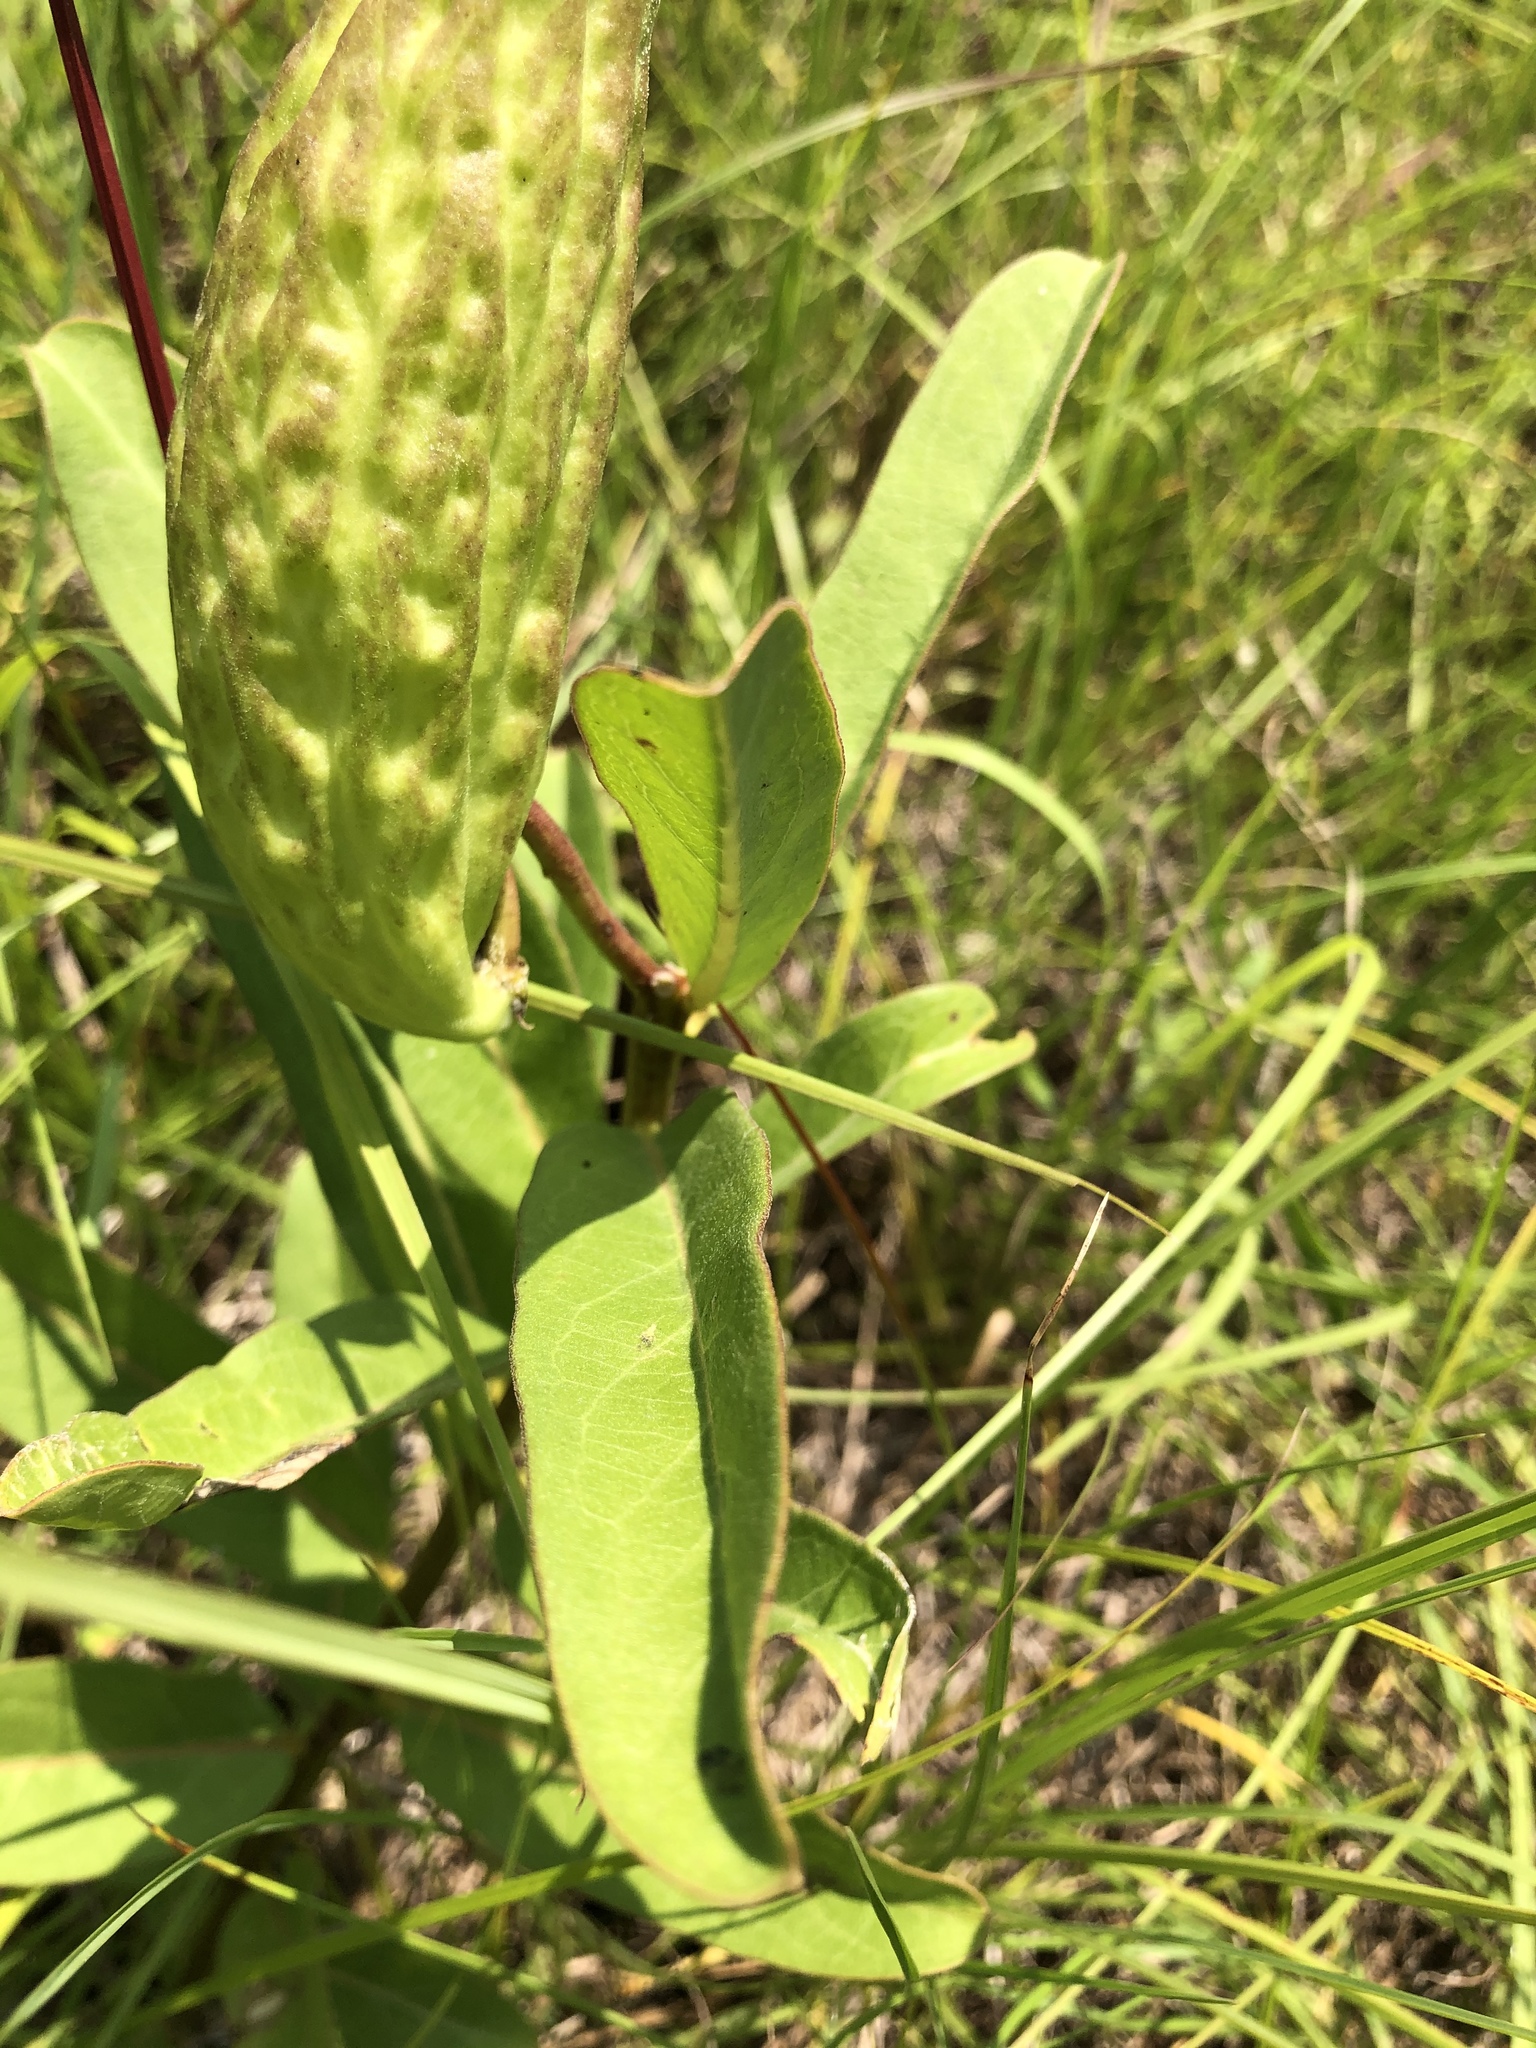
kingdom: Plantae
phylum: Tracheophyta
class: Magnoliopsida
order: Gentianales
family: Apocynaceae
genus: Asclepias
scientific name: Asclepias viridis
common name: Antelope-horns
